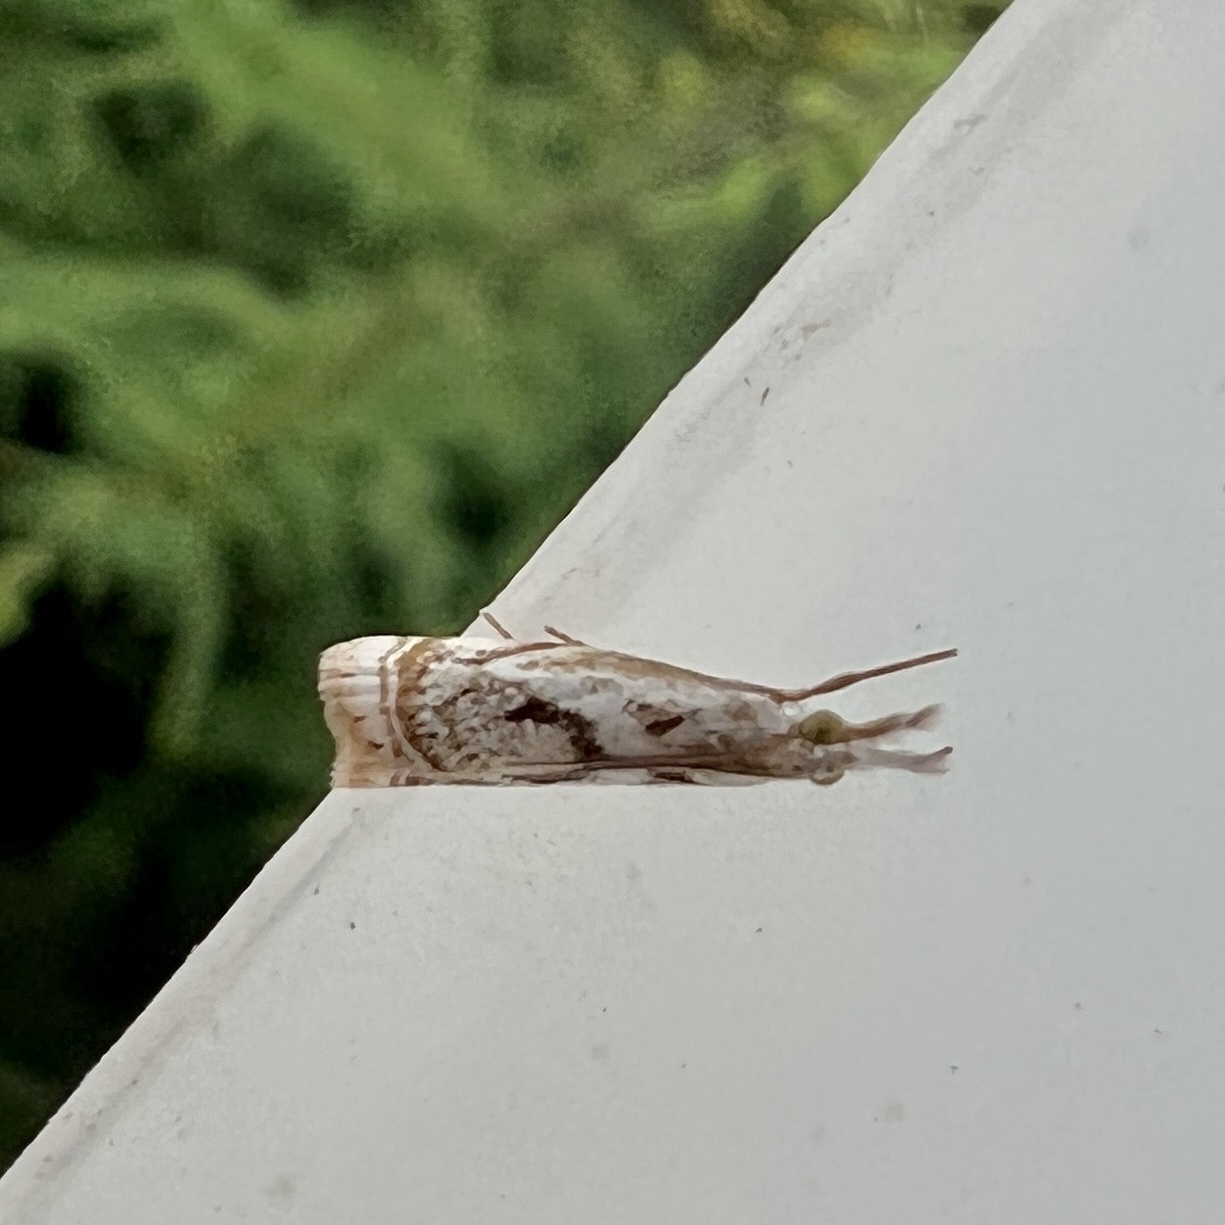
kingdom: Animalia
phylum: Arthropoda
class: Insecta
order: Lepidoptera
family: Crambidae
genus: Microcrambus
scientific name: Microcrambus elegans
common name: Elegant grass-veneer
